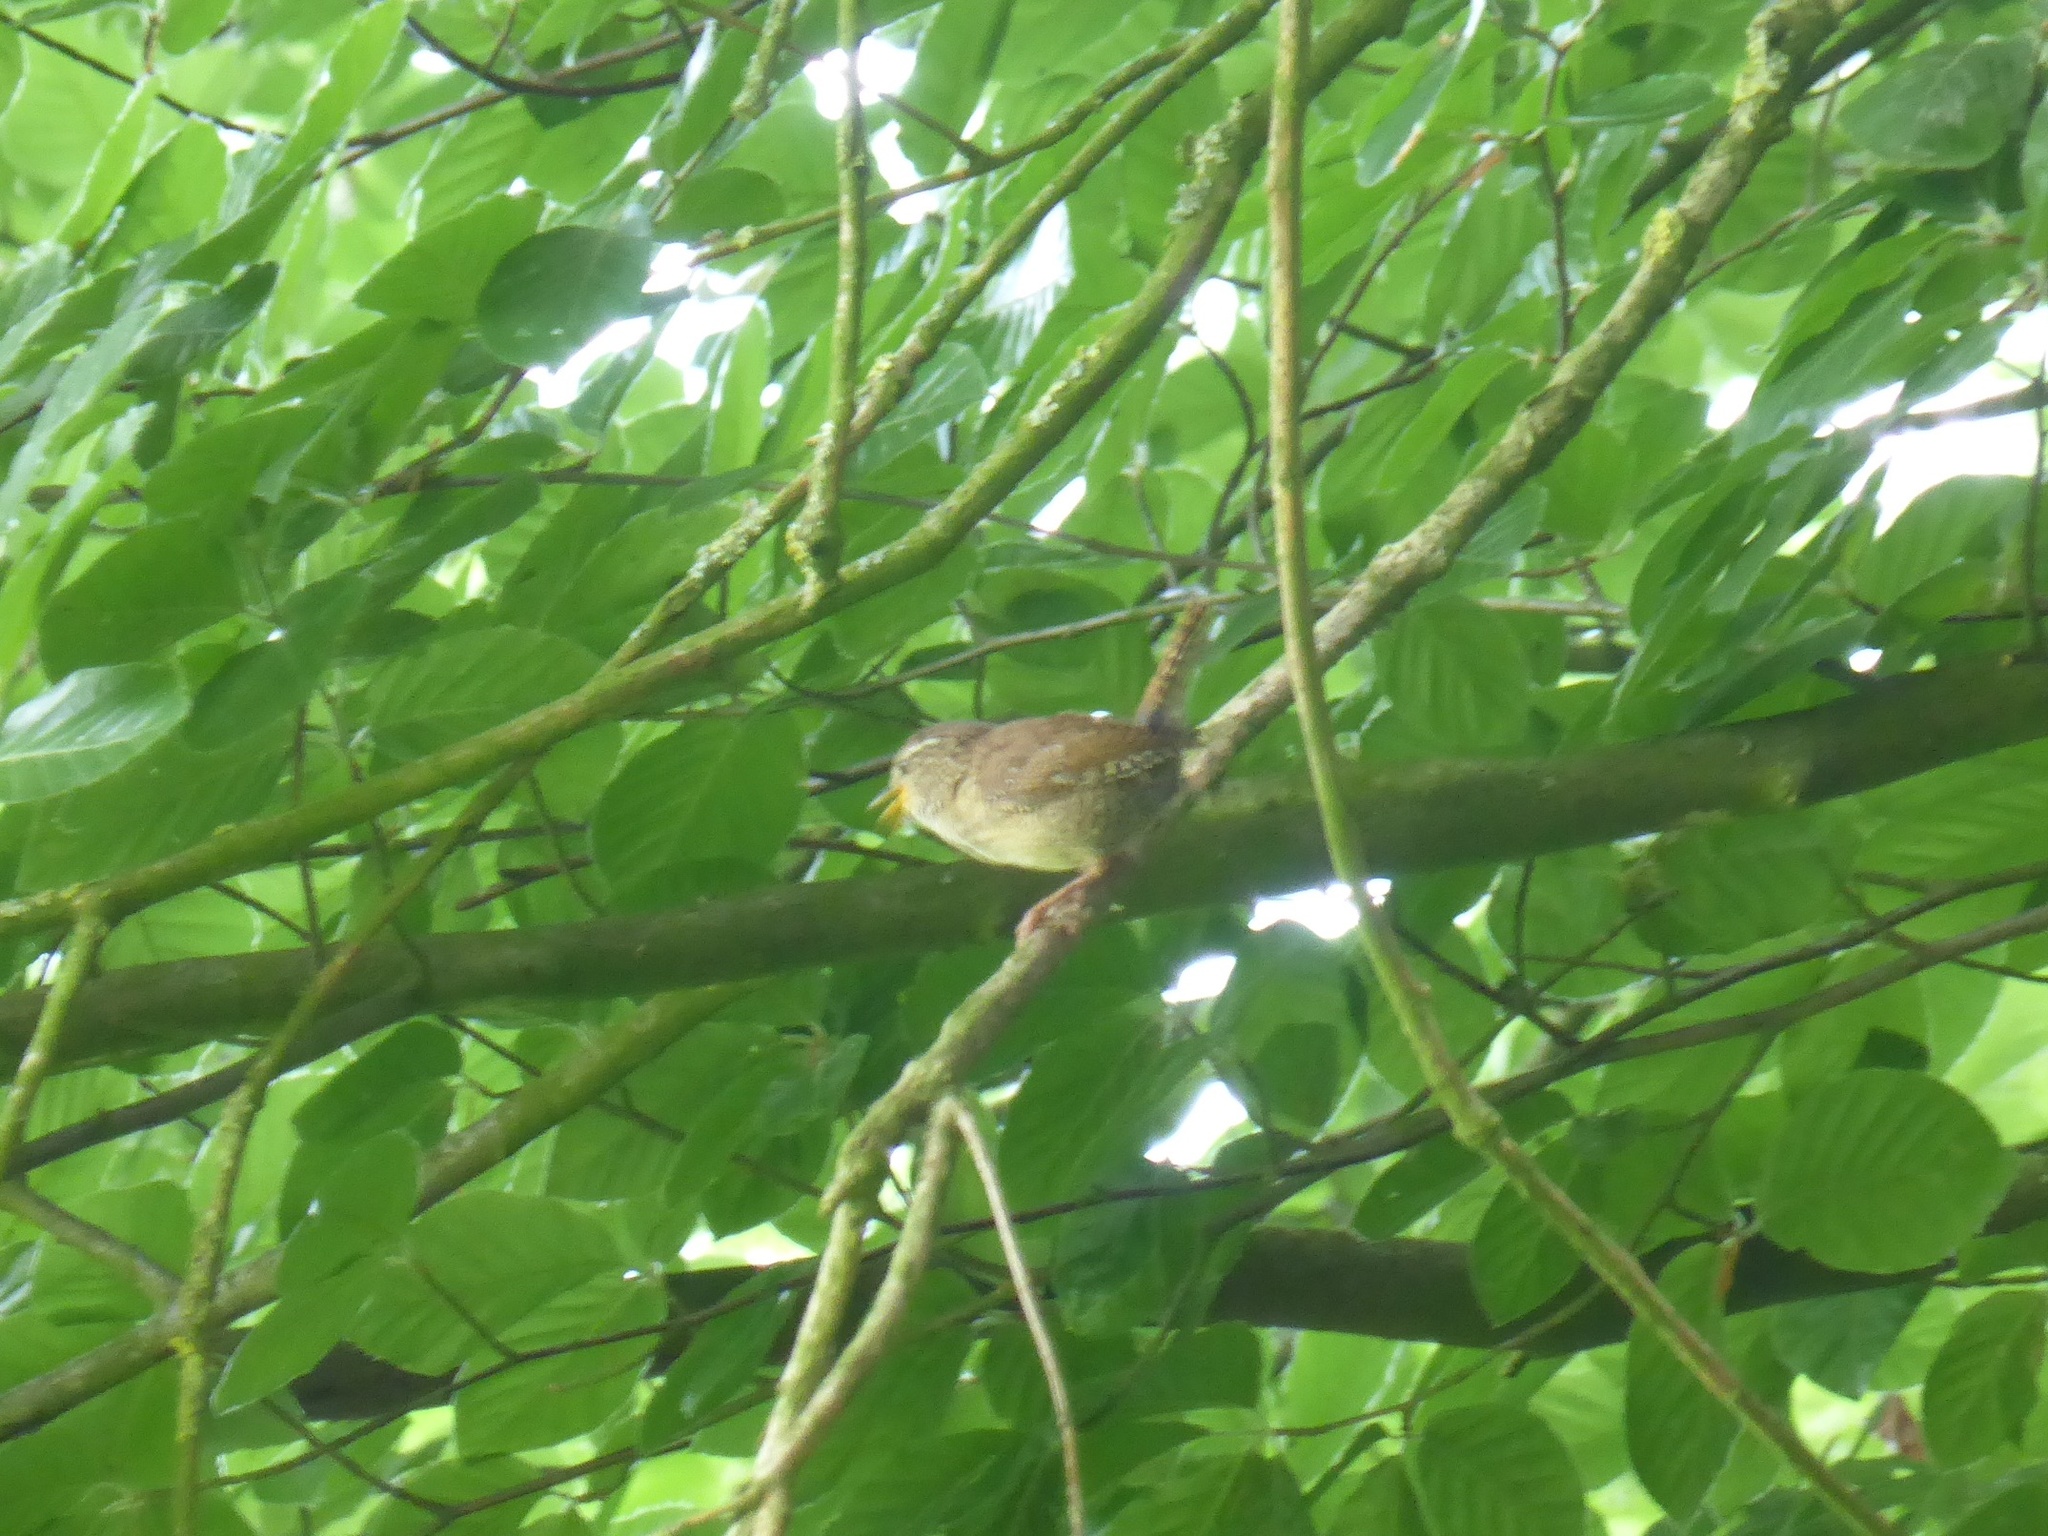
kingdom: Animalia
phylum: Chordata
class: Aves
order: Passeriformes
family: Troglodytidae
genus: Troglodytes
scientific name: Troglodytes troglodytes
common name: Eurasian wren
